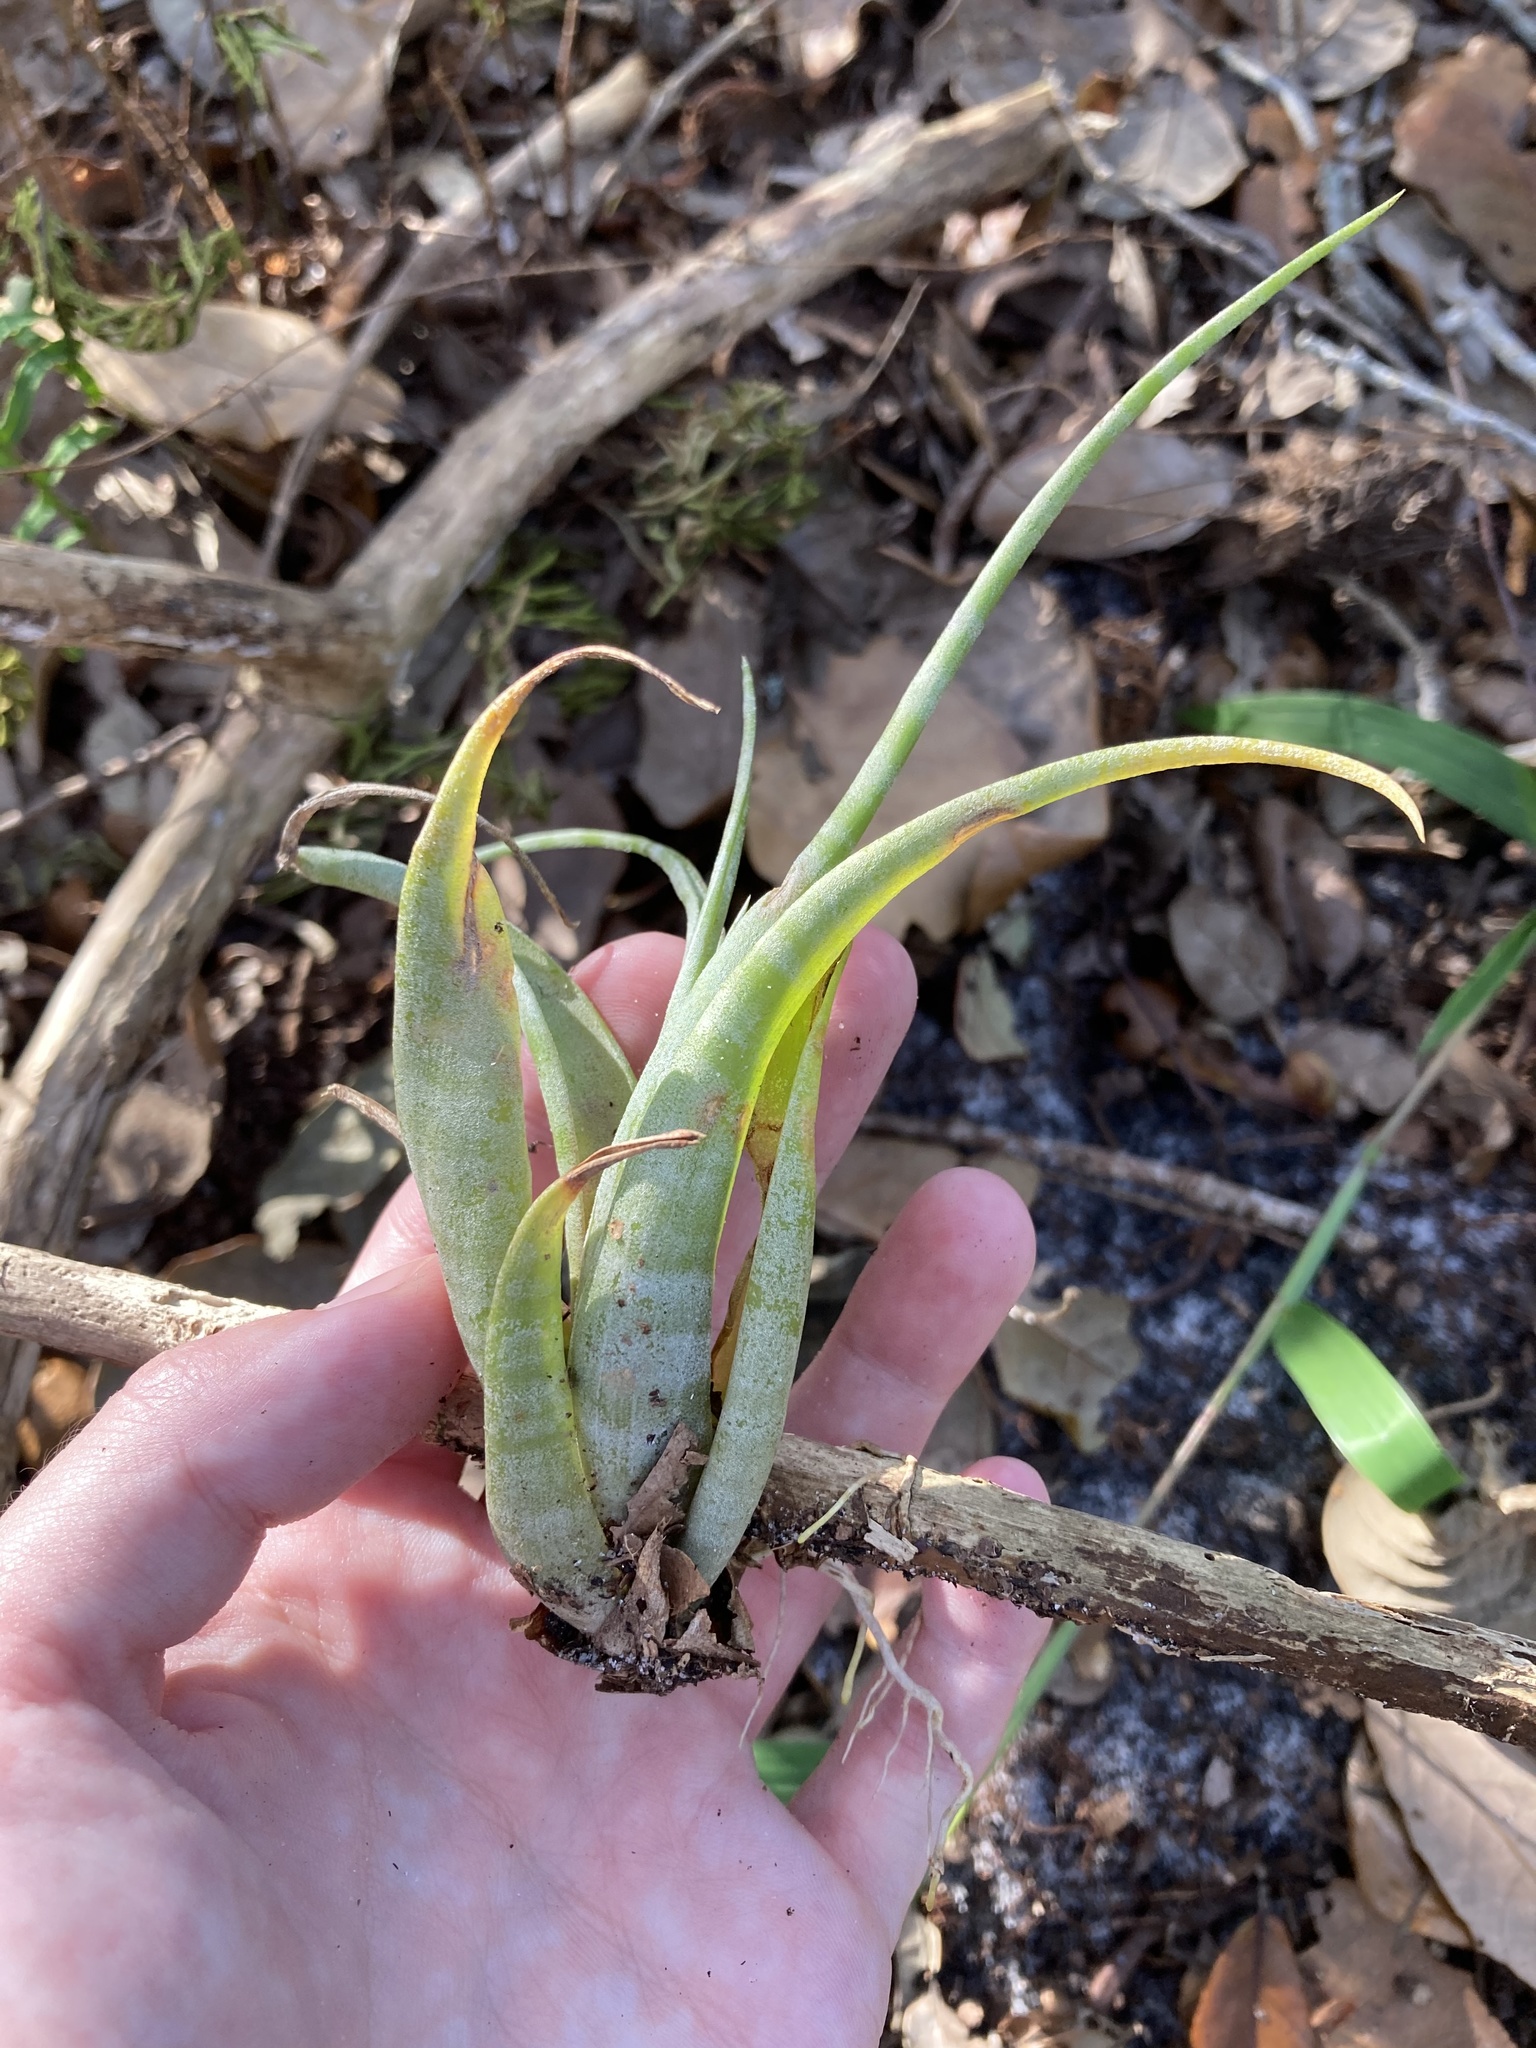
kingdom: Plantae
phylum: Tracheophyta
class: Liliopsida
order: Poales
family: Bromeliaceae
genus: Tillandsia
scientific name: Tillandsia flexuosa
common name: Banded airplant
